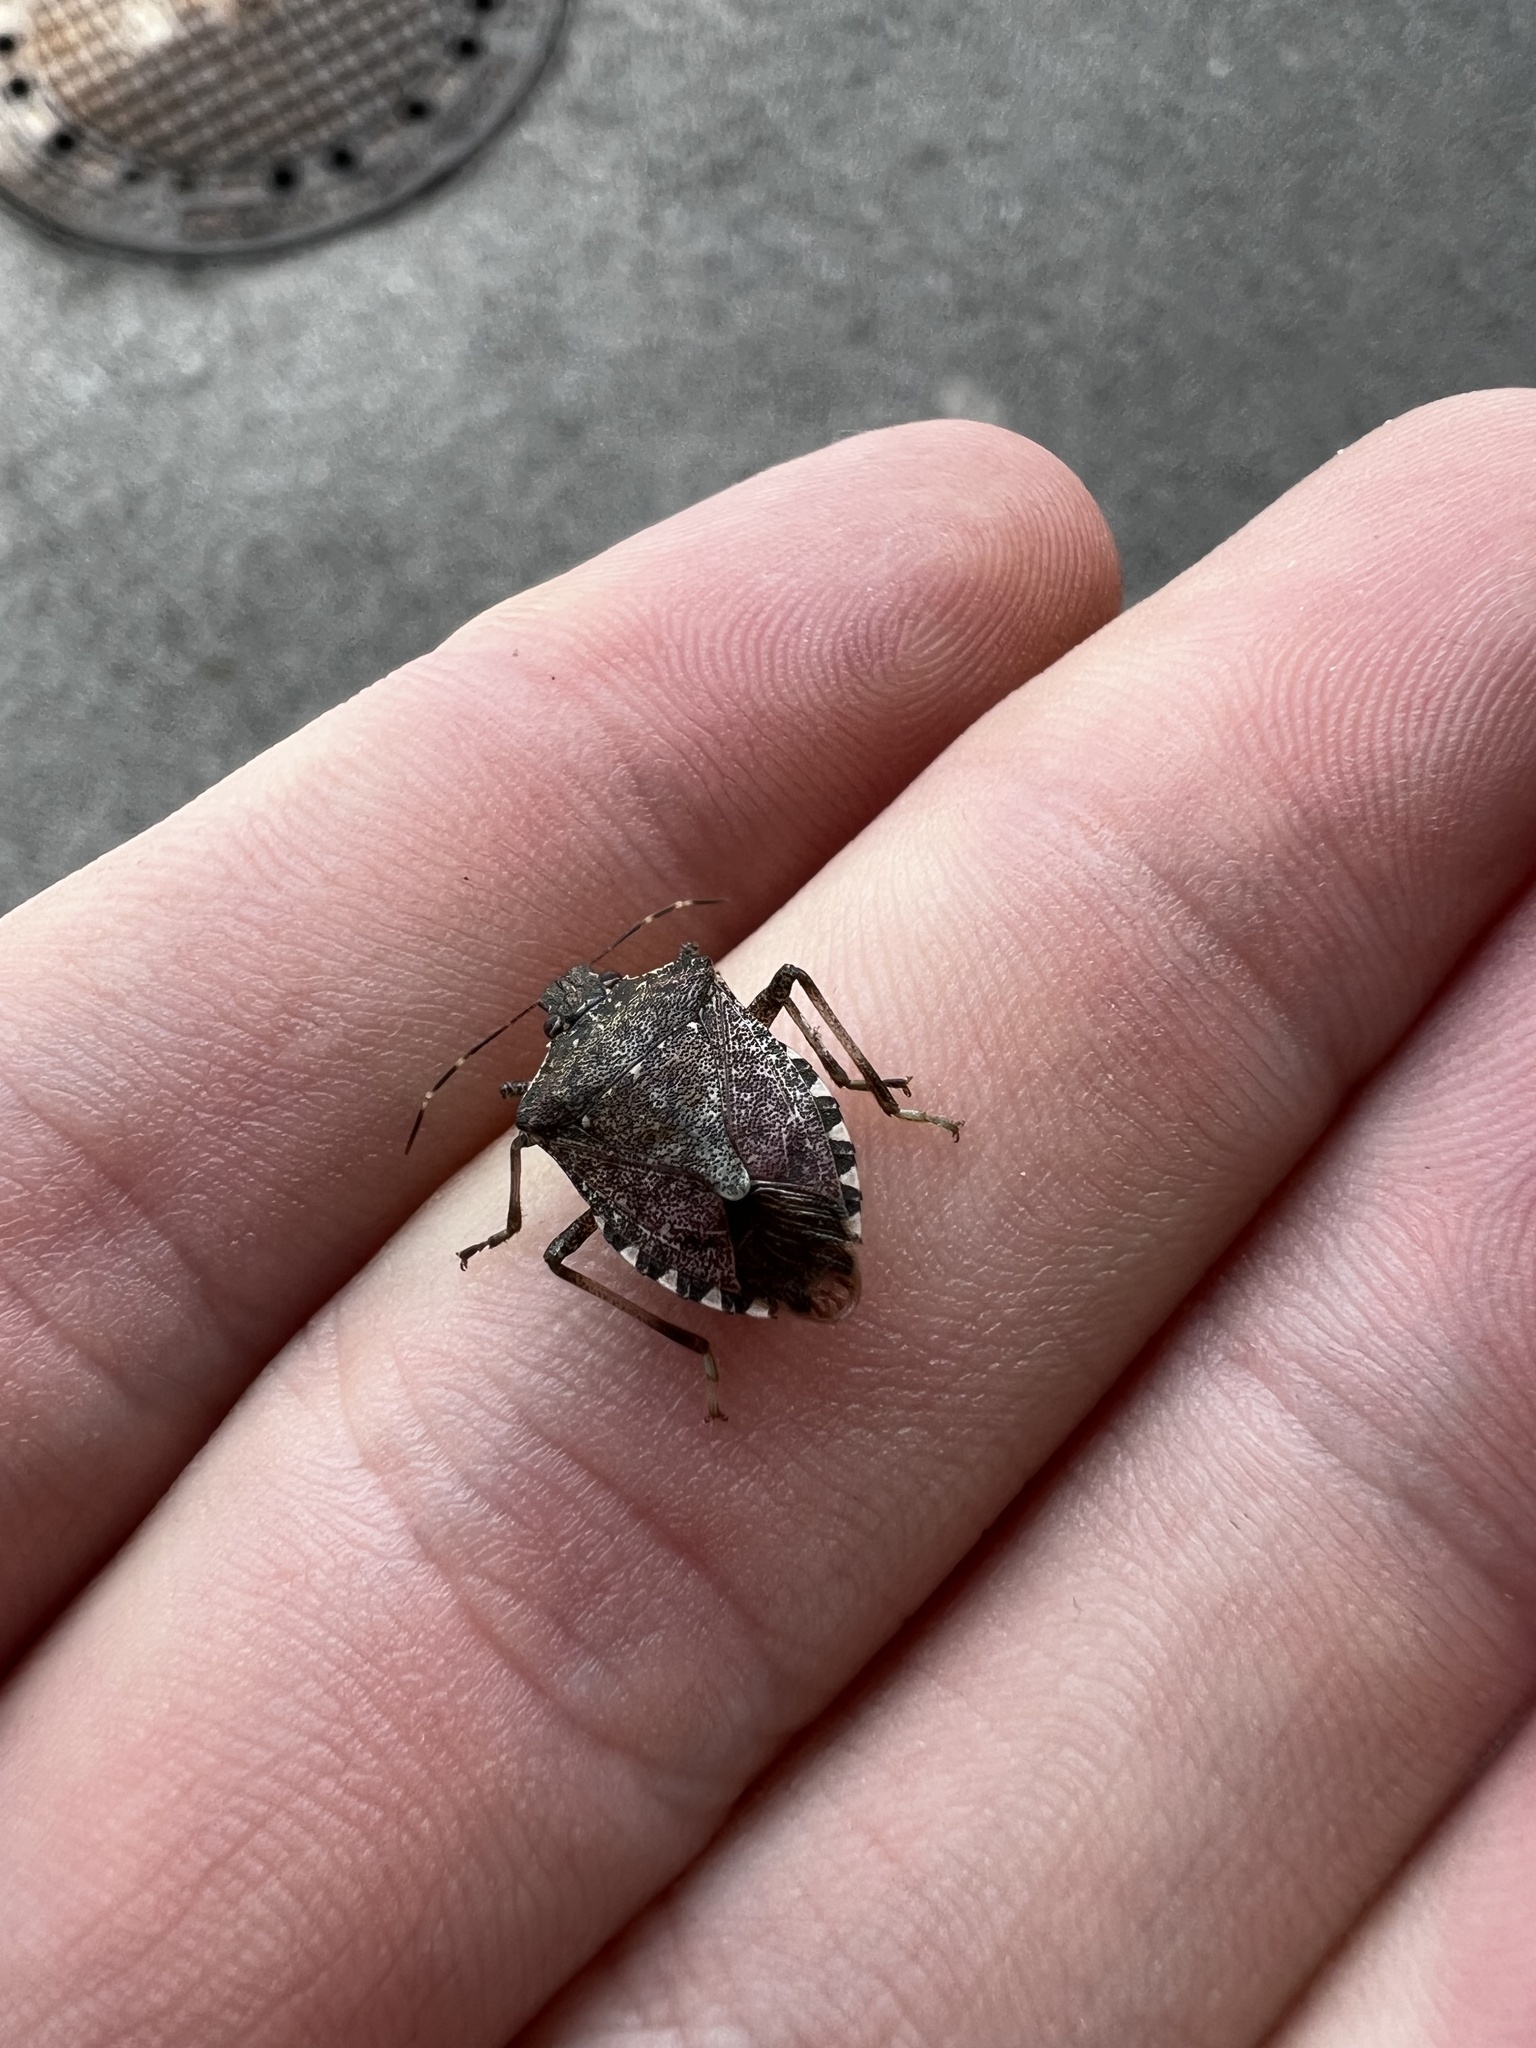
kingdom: Animalia
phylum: Arthropoda
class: Insecta
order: Hemiptera
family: Pentatomidae
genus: Halyomorpha
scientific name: Halyomorpha halys
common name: Brown marmorated stink bug
